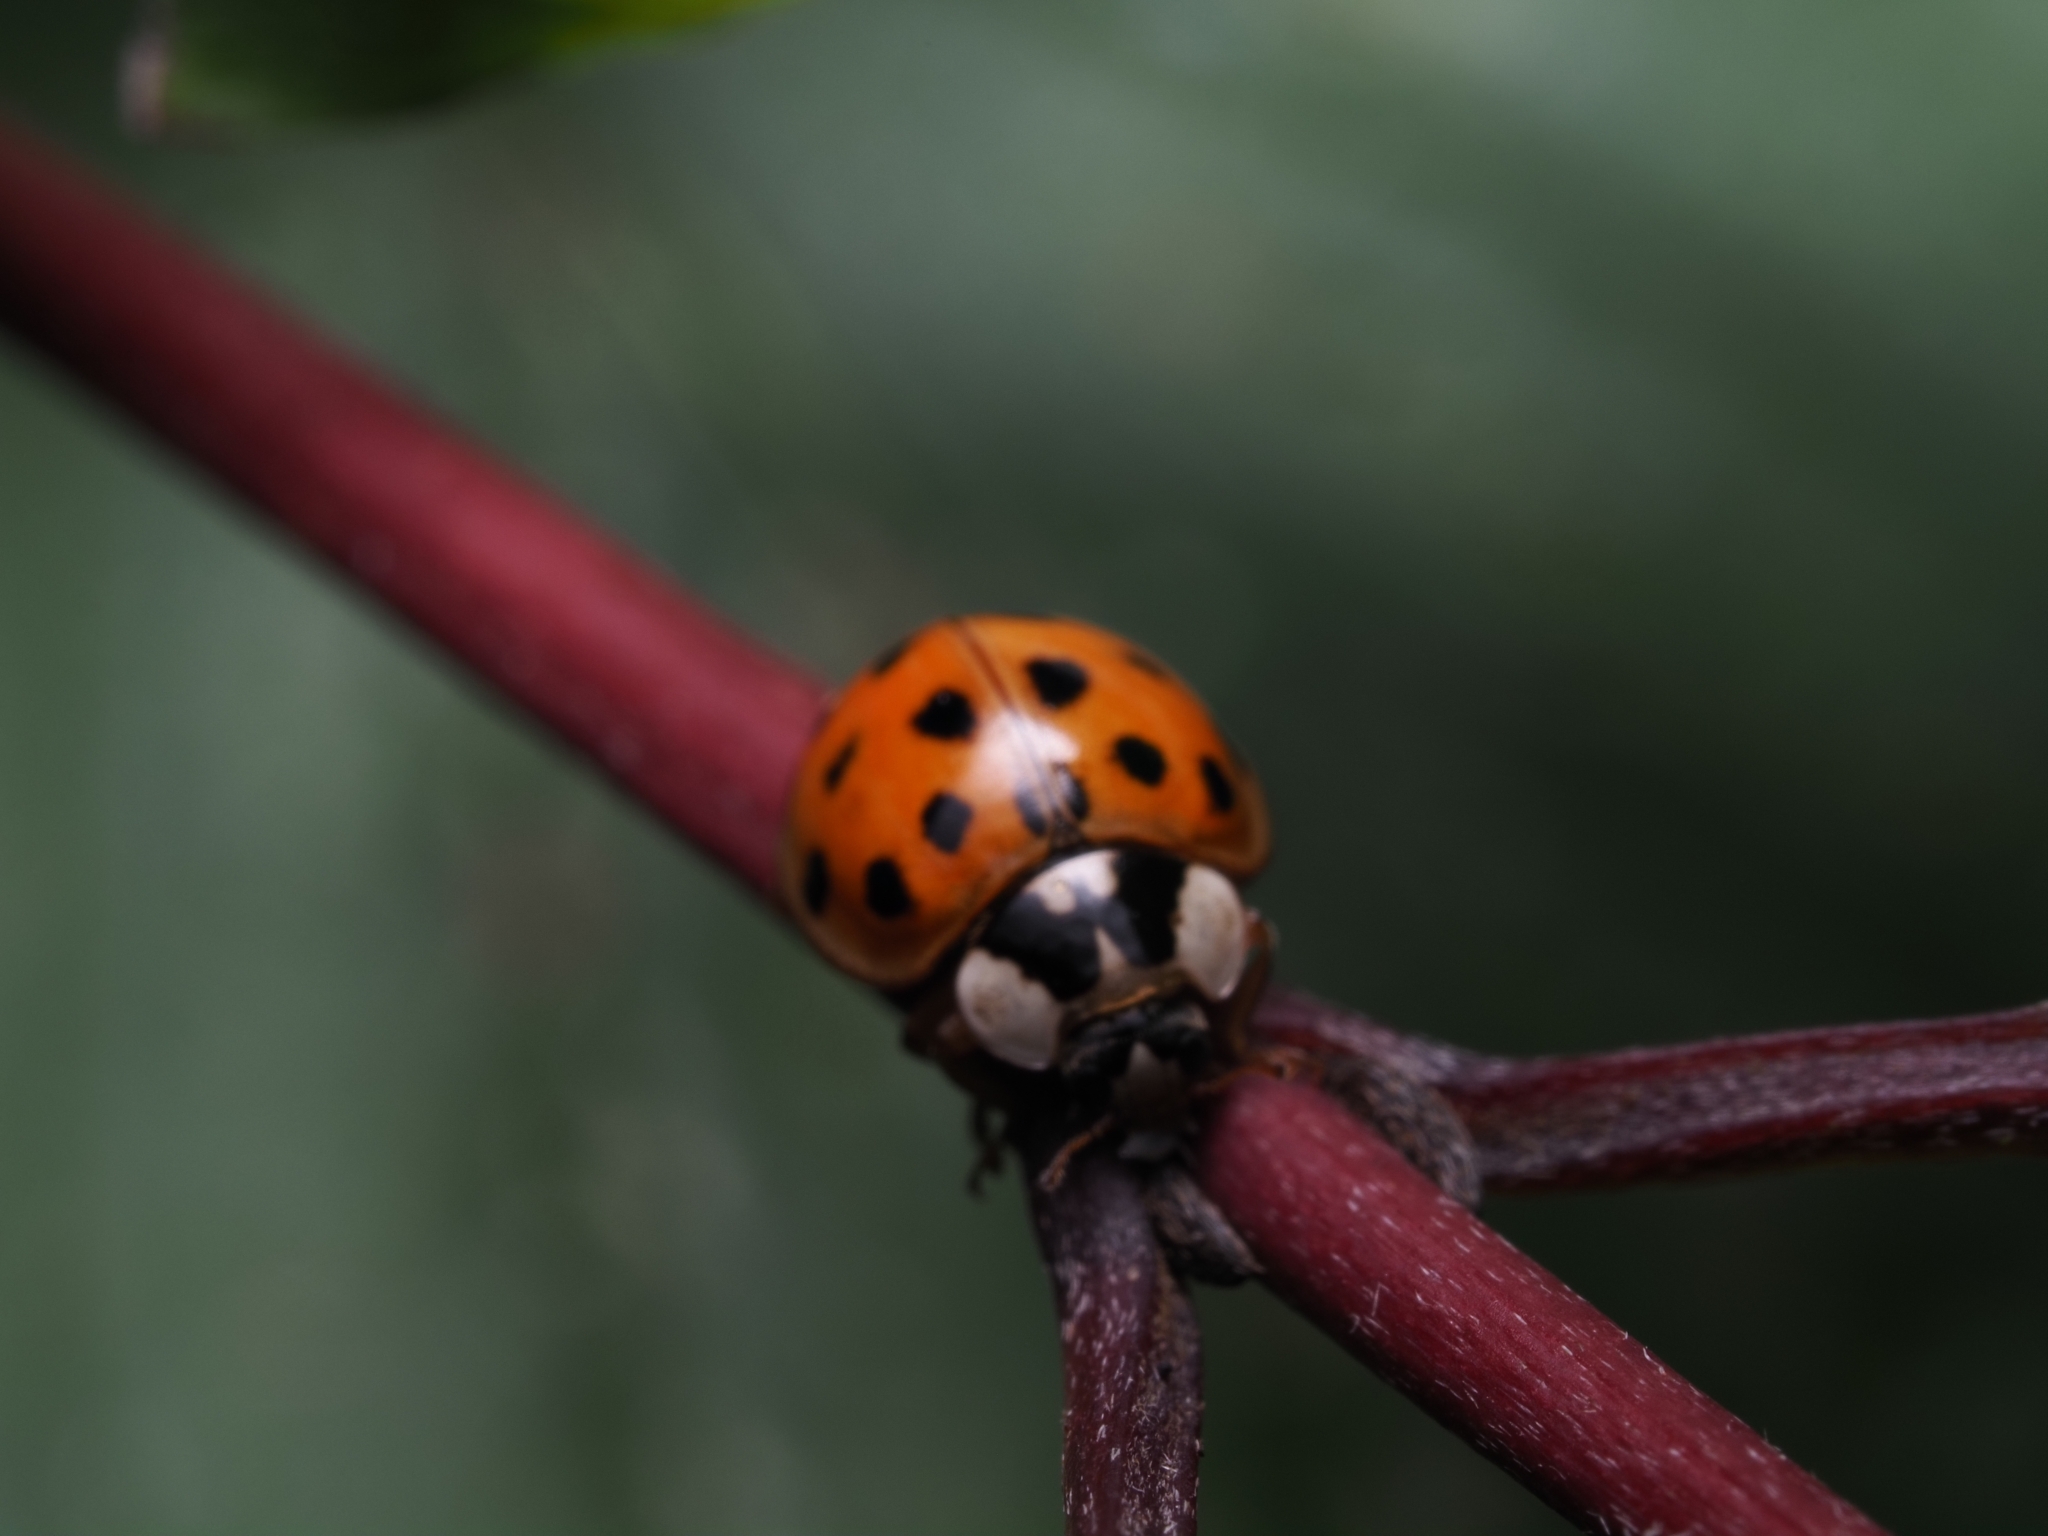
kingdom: Animalia
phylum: Arthropoda
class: Insecta
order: Coleoptera
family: Coccinellidae
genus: Harmonia
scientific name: Harmonia axyridis
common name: Harlequin ladybird
